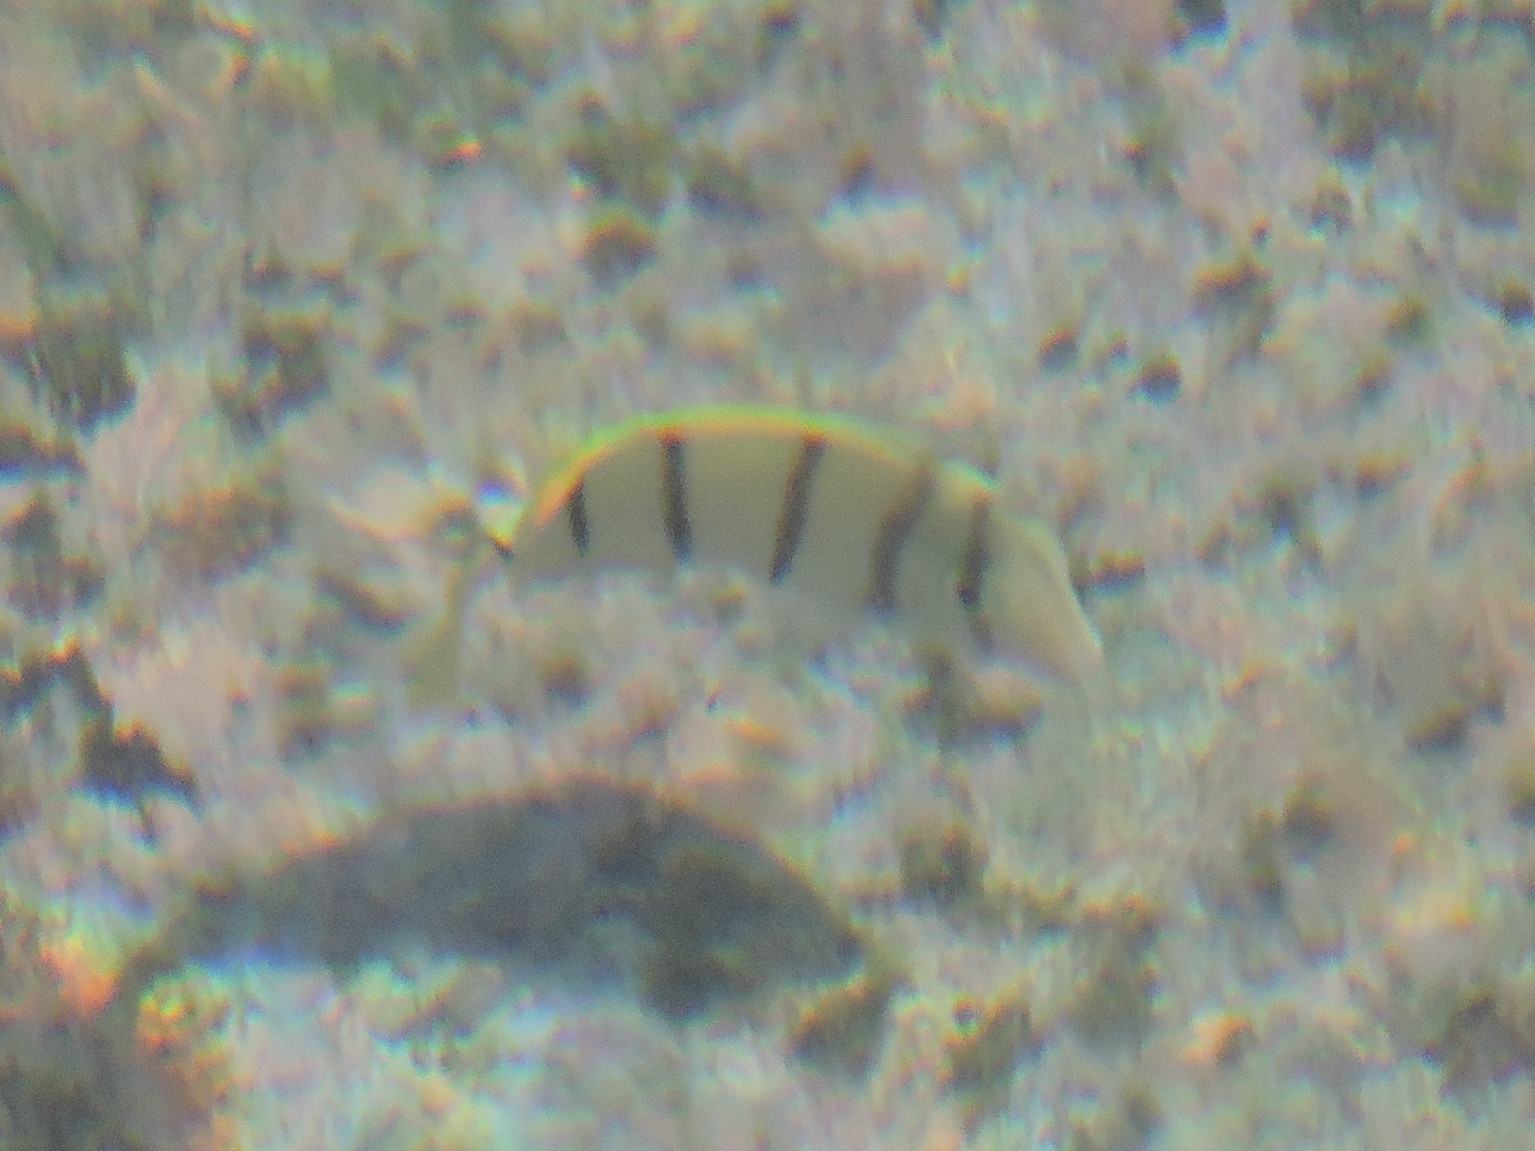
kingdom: Animalia
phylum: Chordata
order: Perciformes
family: Acanthuridae
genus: Acanthurus
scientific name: Acanthurus triostegus
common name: Convict surgeonfish
